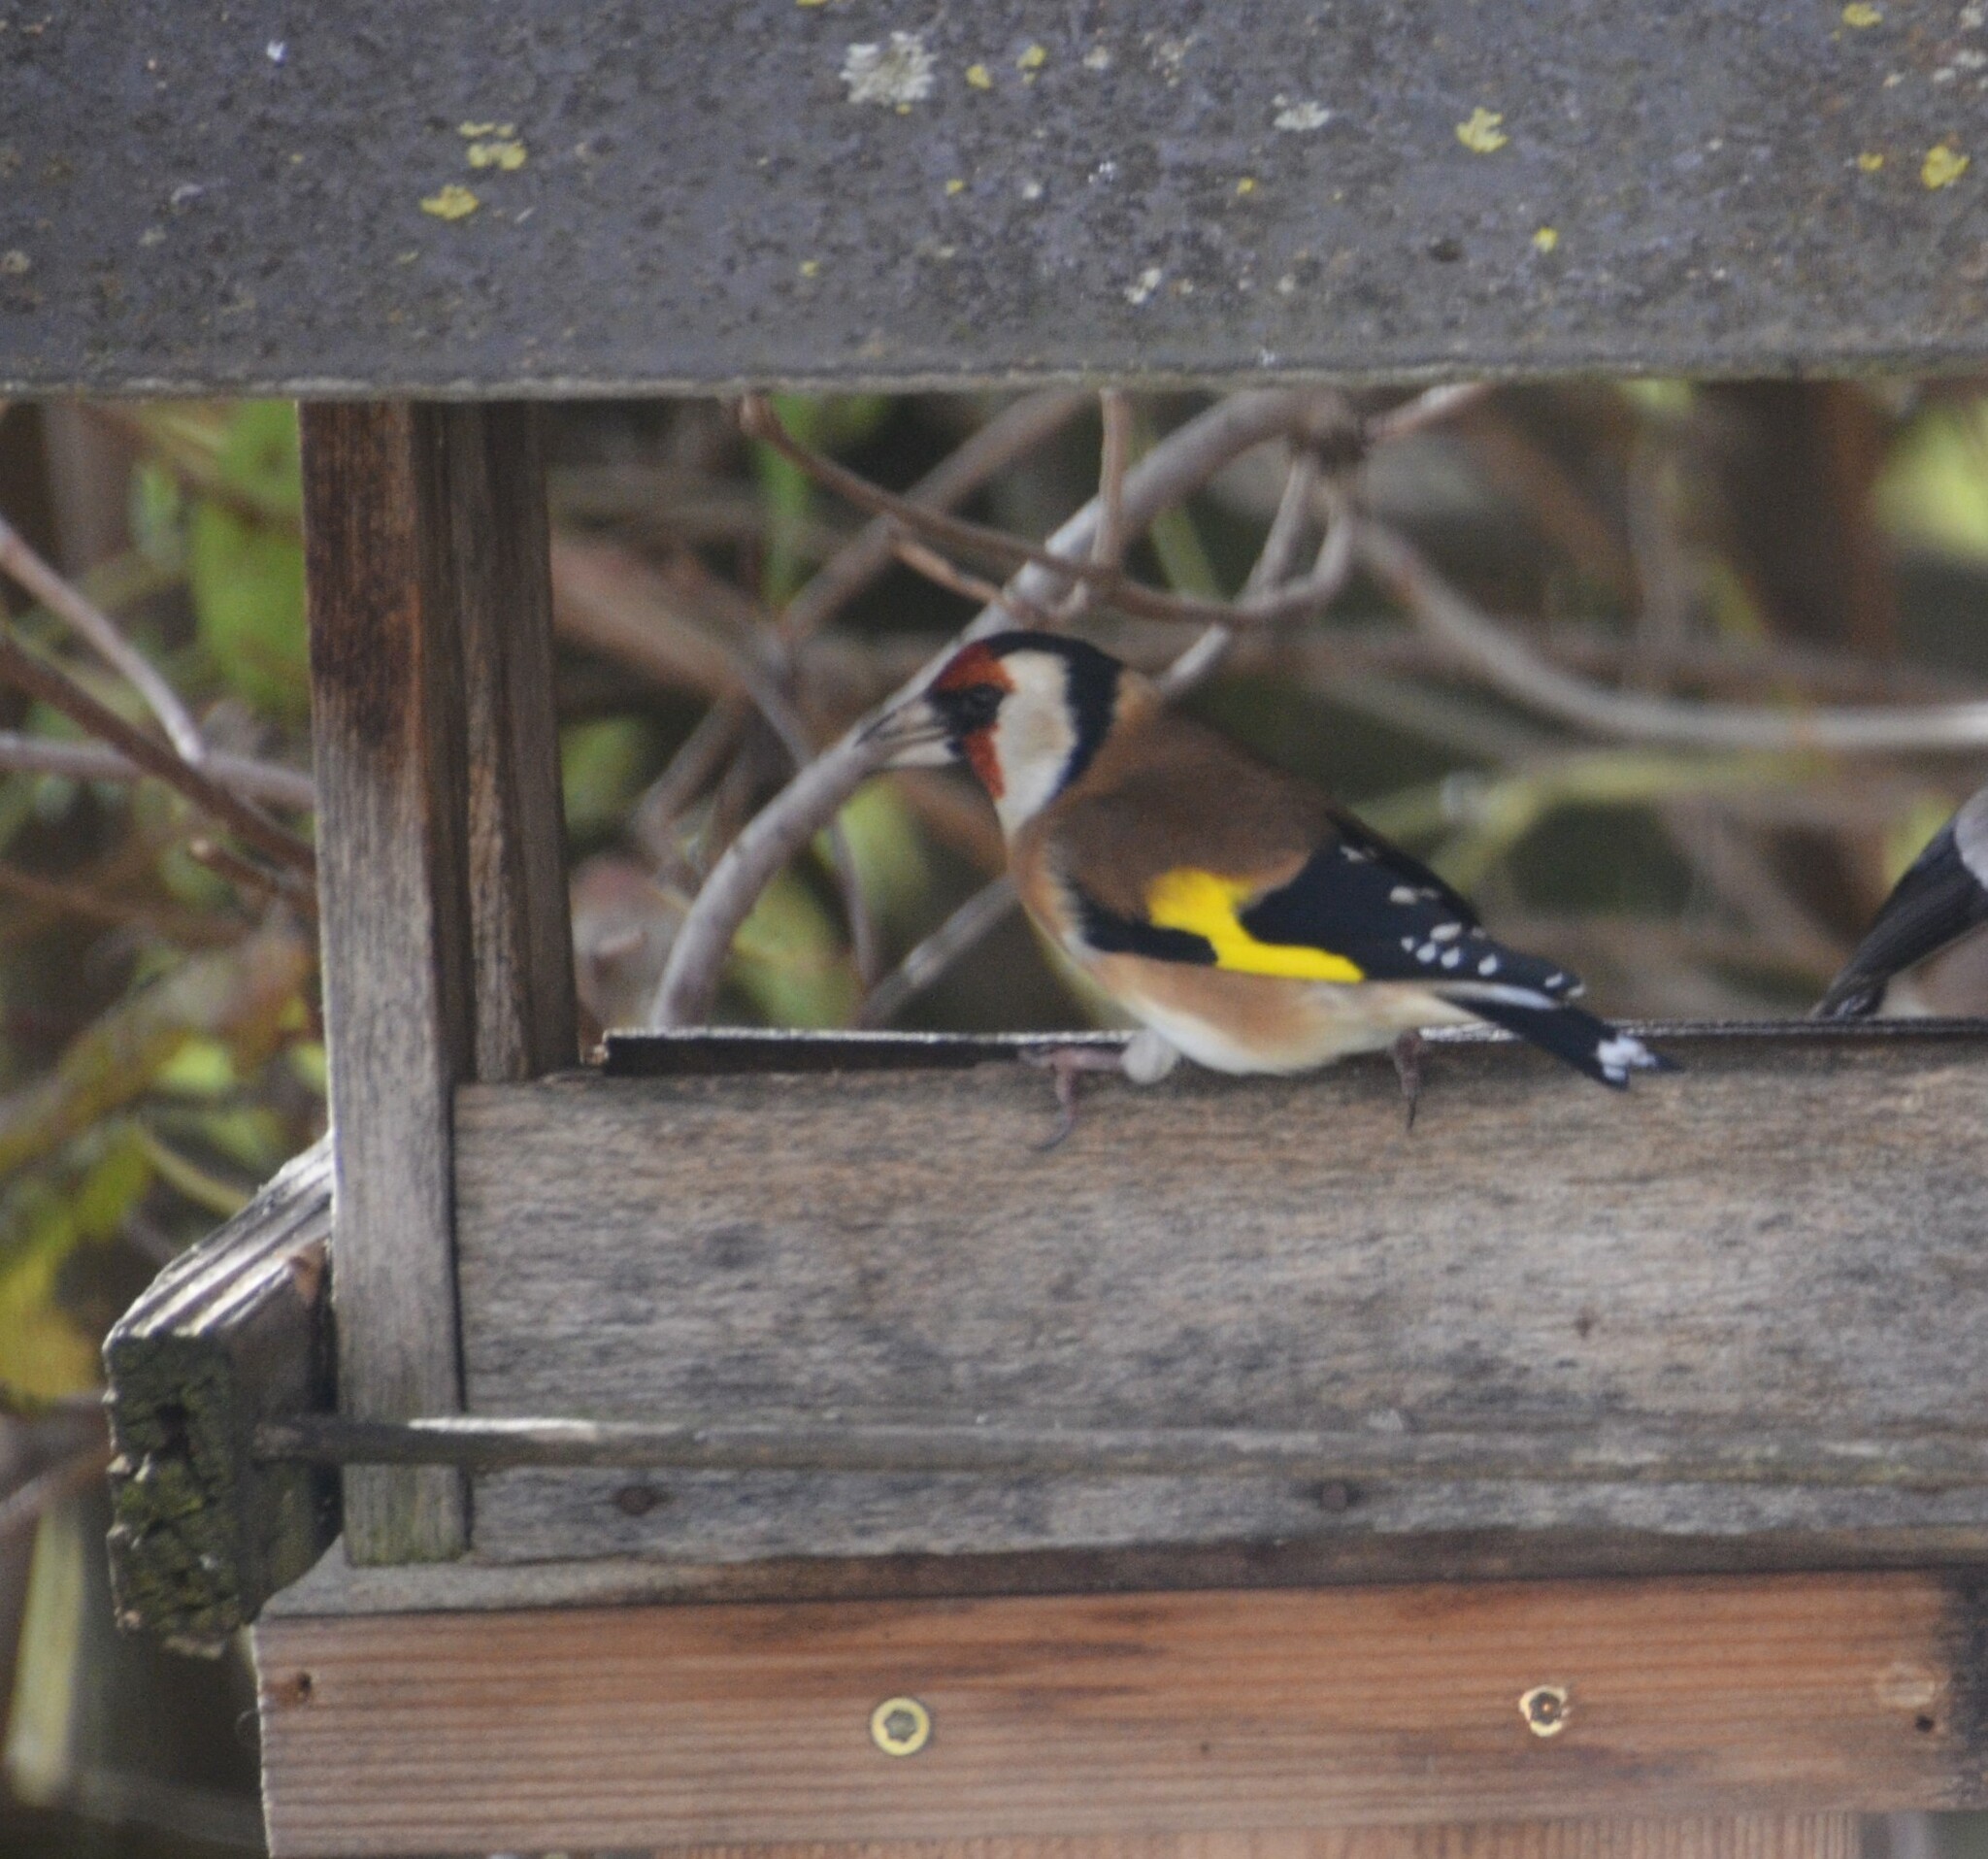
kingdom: Animalia
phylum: Chordata
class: Aves
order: Passeriformes
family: Fringillidae
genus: Carduelis
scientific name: Carduelis carduelis
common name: European goldfinch
